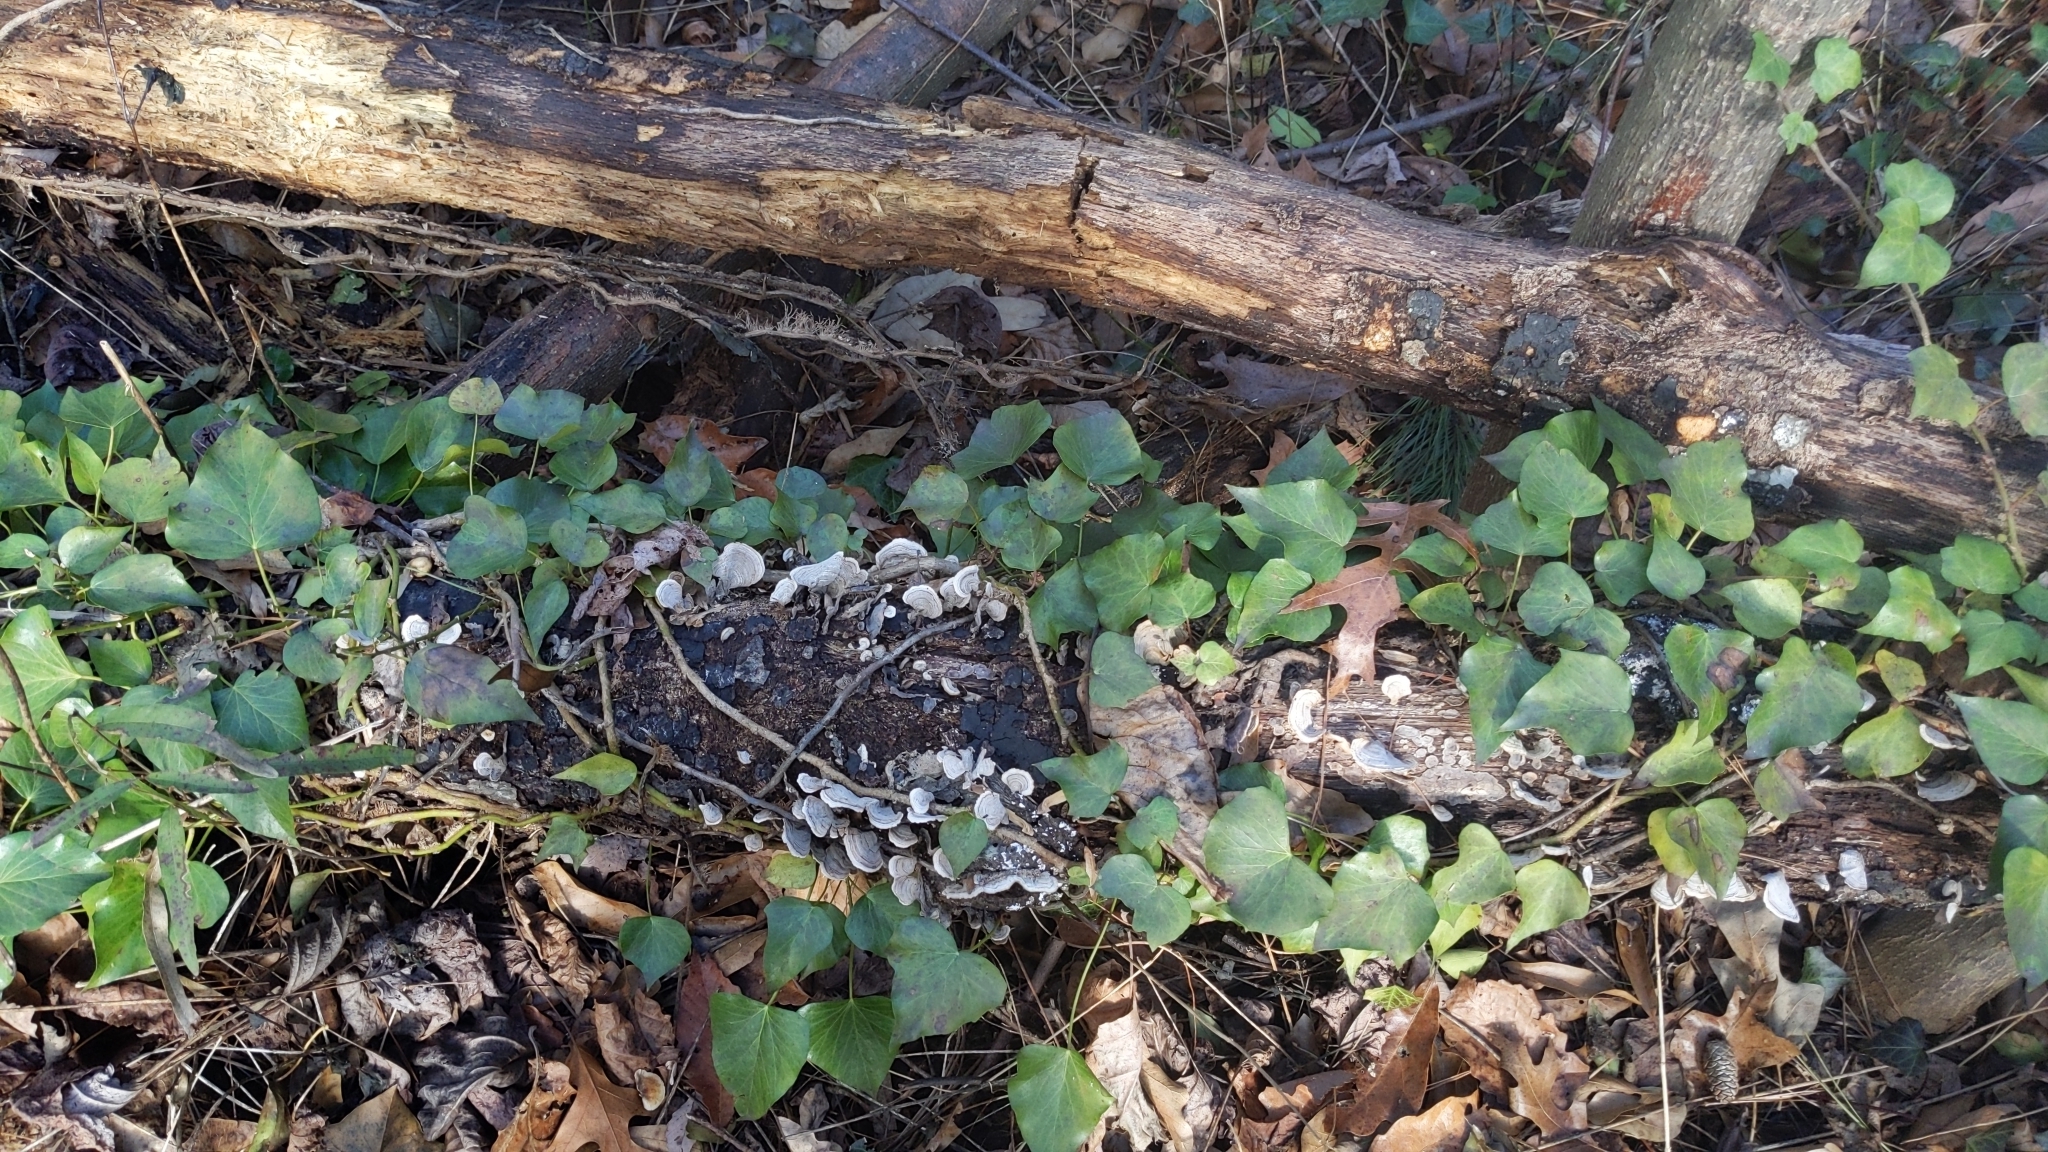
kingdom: Fungi
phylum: Basidiomycota
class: Agaricomycetes
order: Russulales
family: Stereaceae
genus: Stereum
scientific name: Stereum ostrea
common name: False turkeytail
